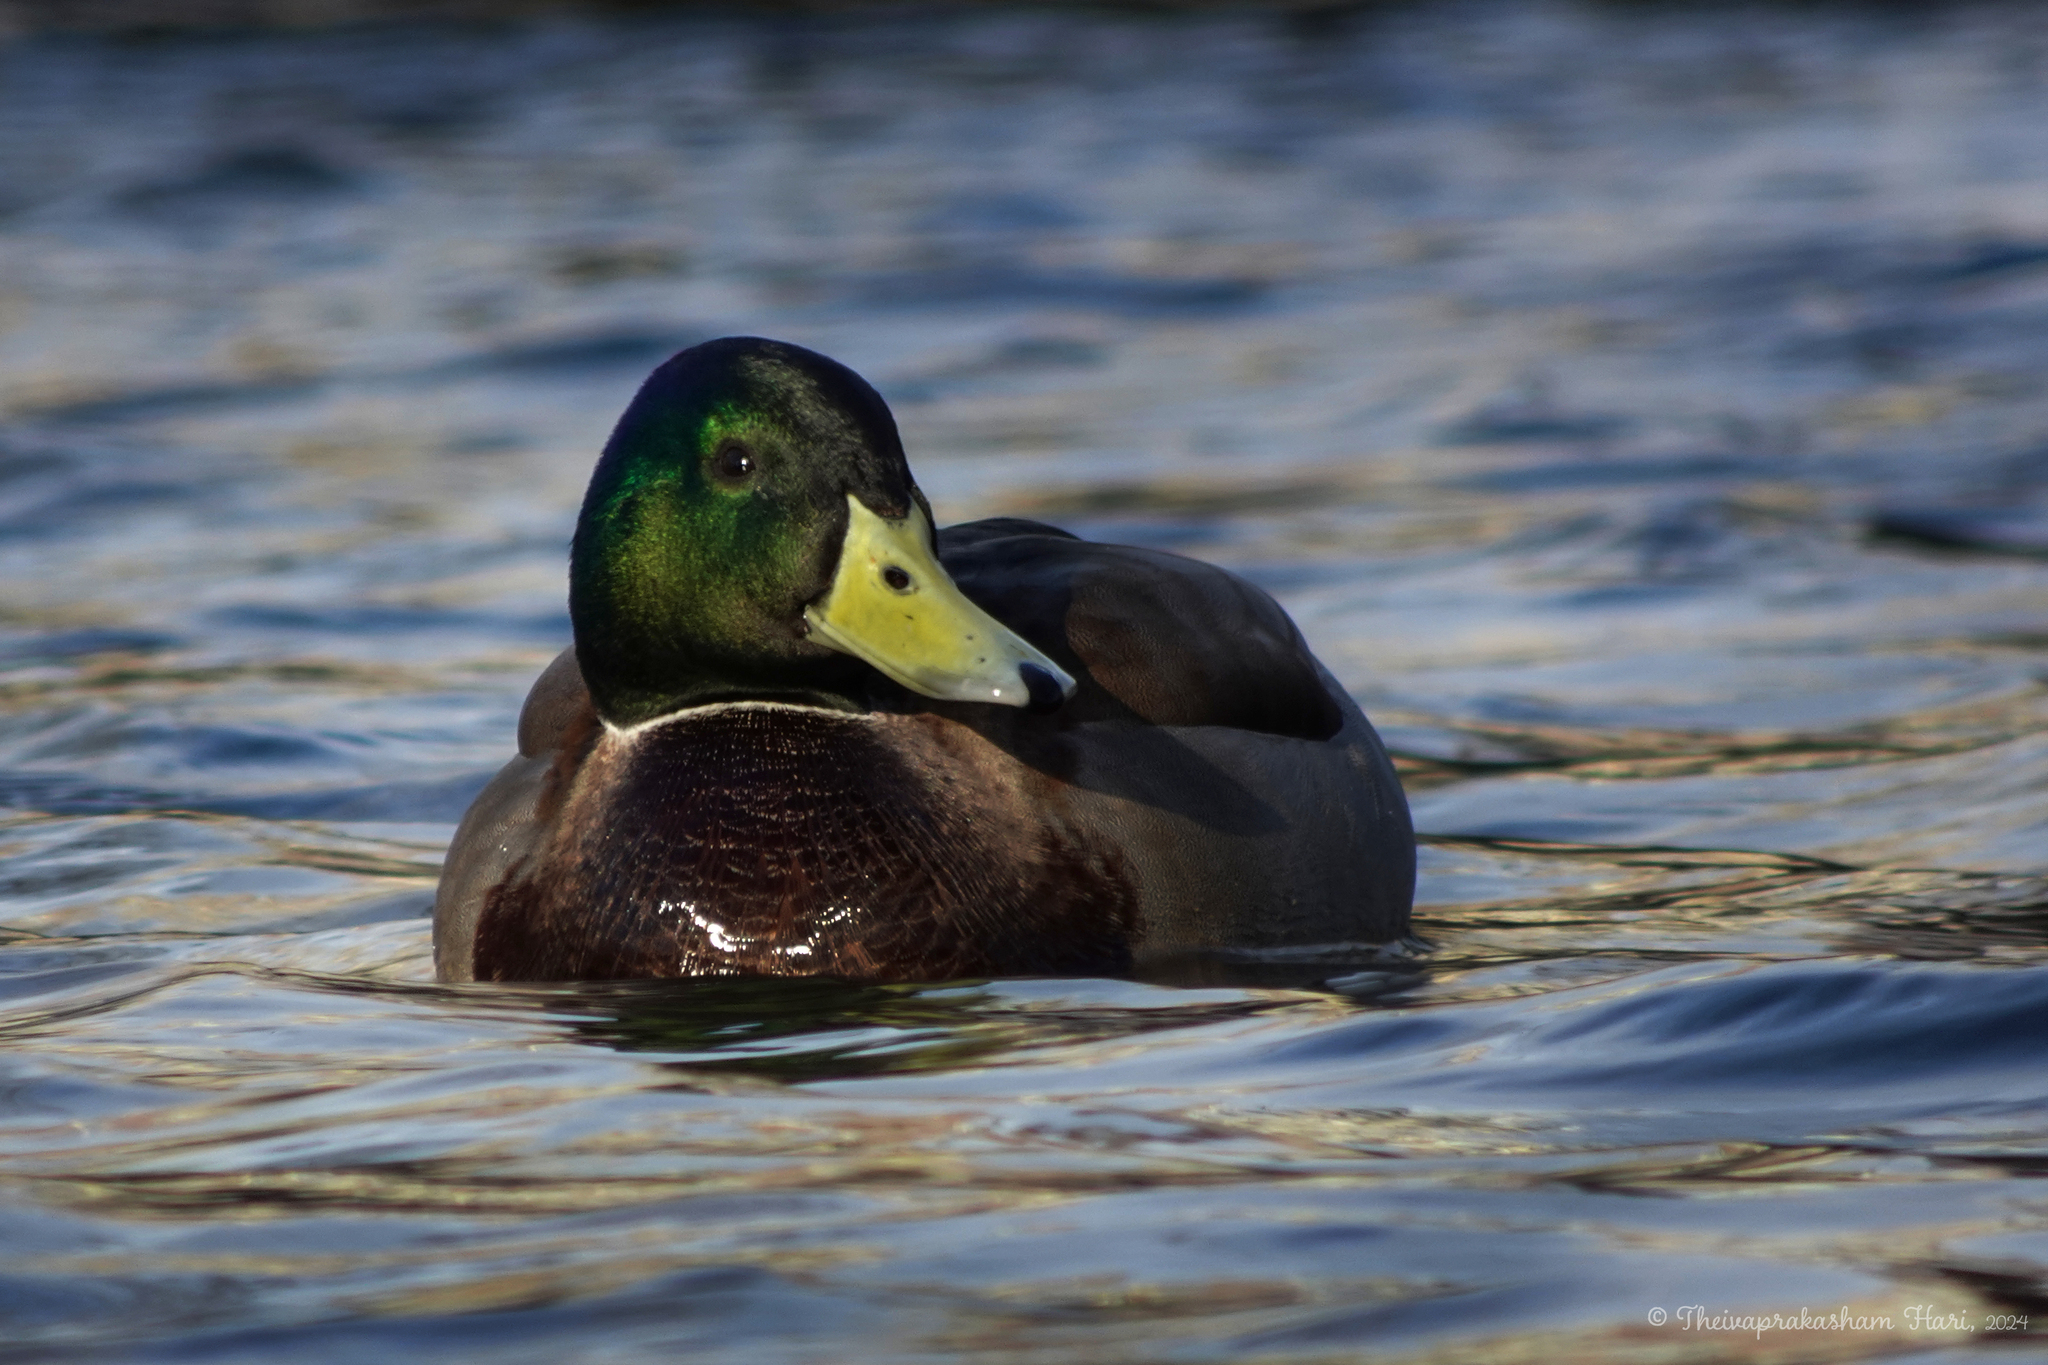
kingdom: Animalia
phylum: Chordata
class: Aves
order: Anseriformes
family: Anatidae
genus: Anas
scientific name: Anas platyrhynchos
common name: Mallard
